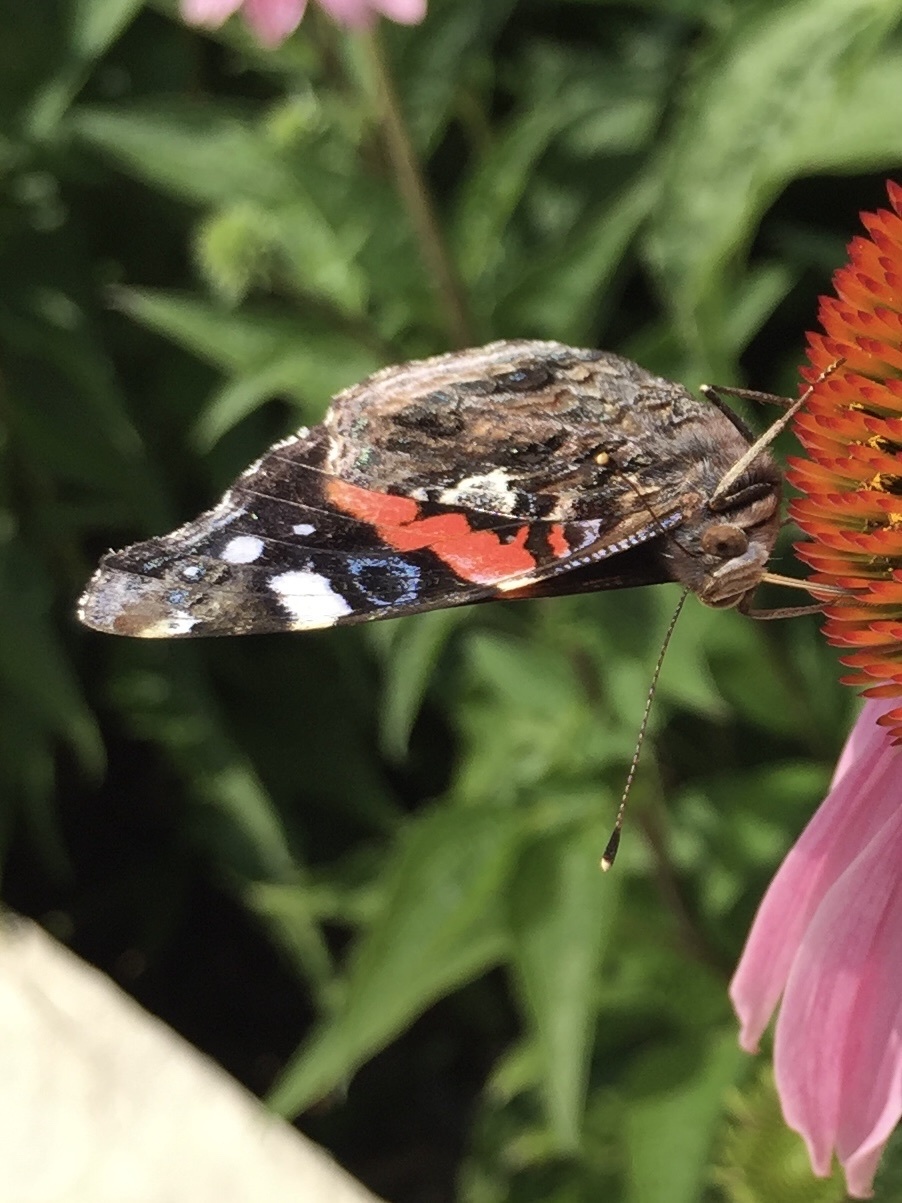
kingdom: Animalia
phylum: Arthropoda
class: Insecta
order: Lepidoptera
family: Nymphalidae
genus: Vanessa
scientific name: Vanessa atalanta
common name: Red admiral
